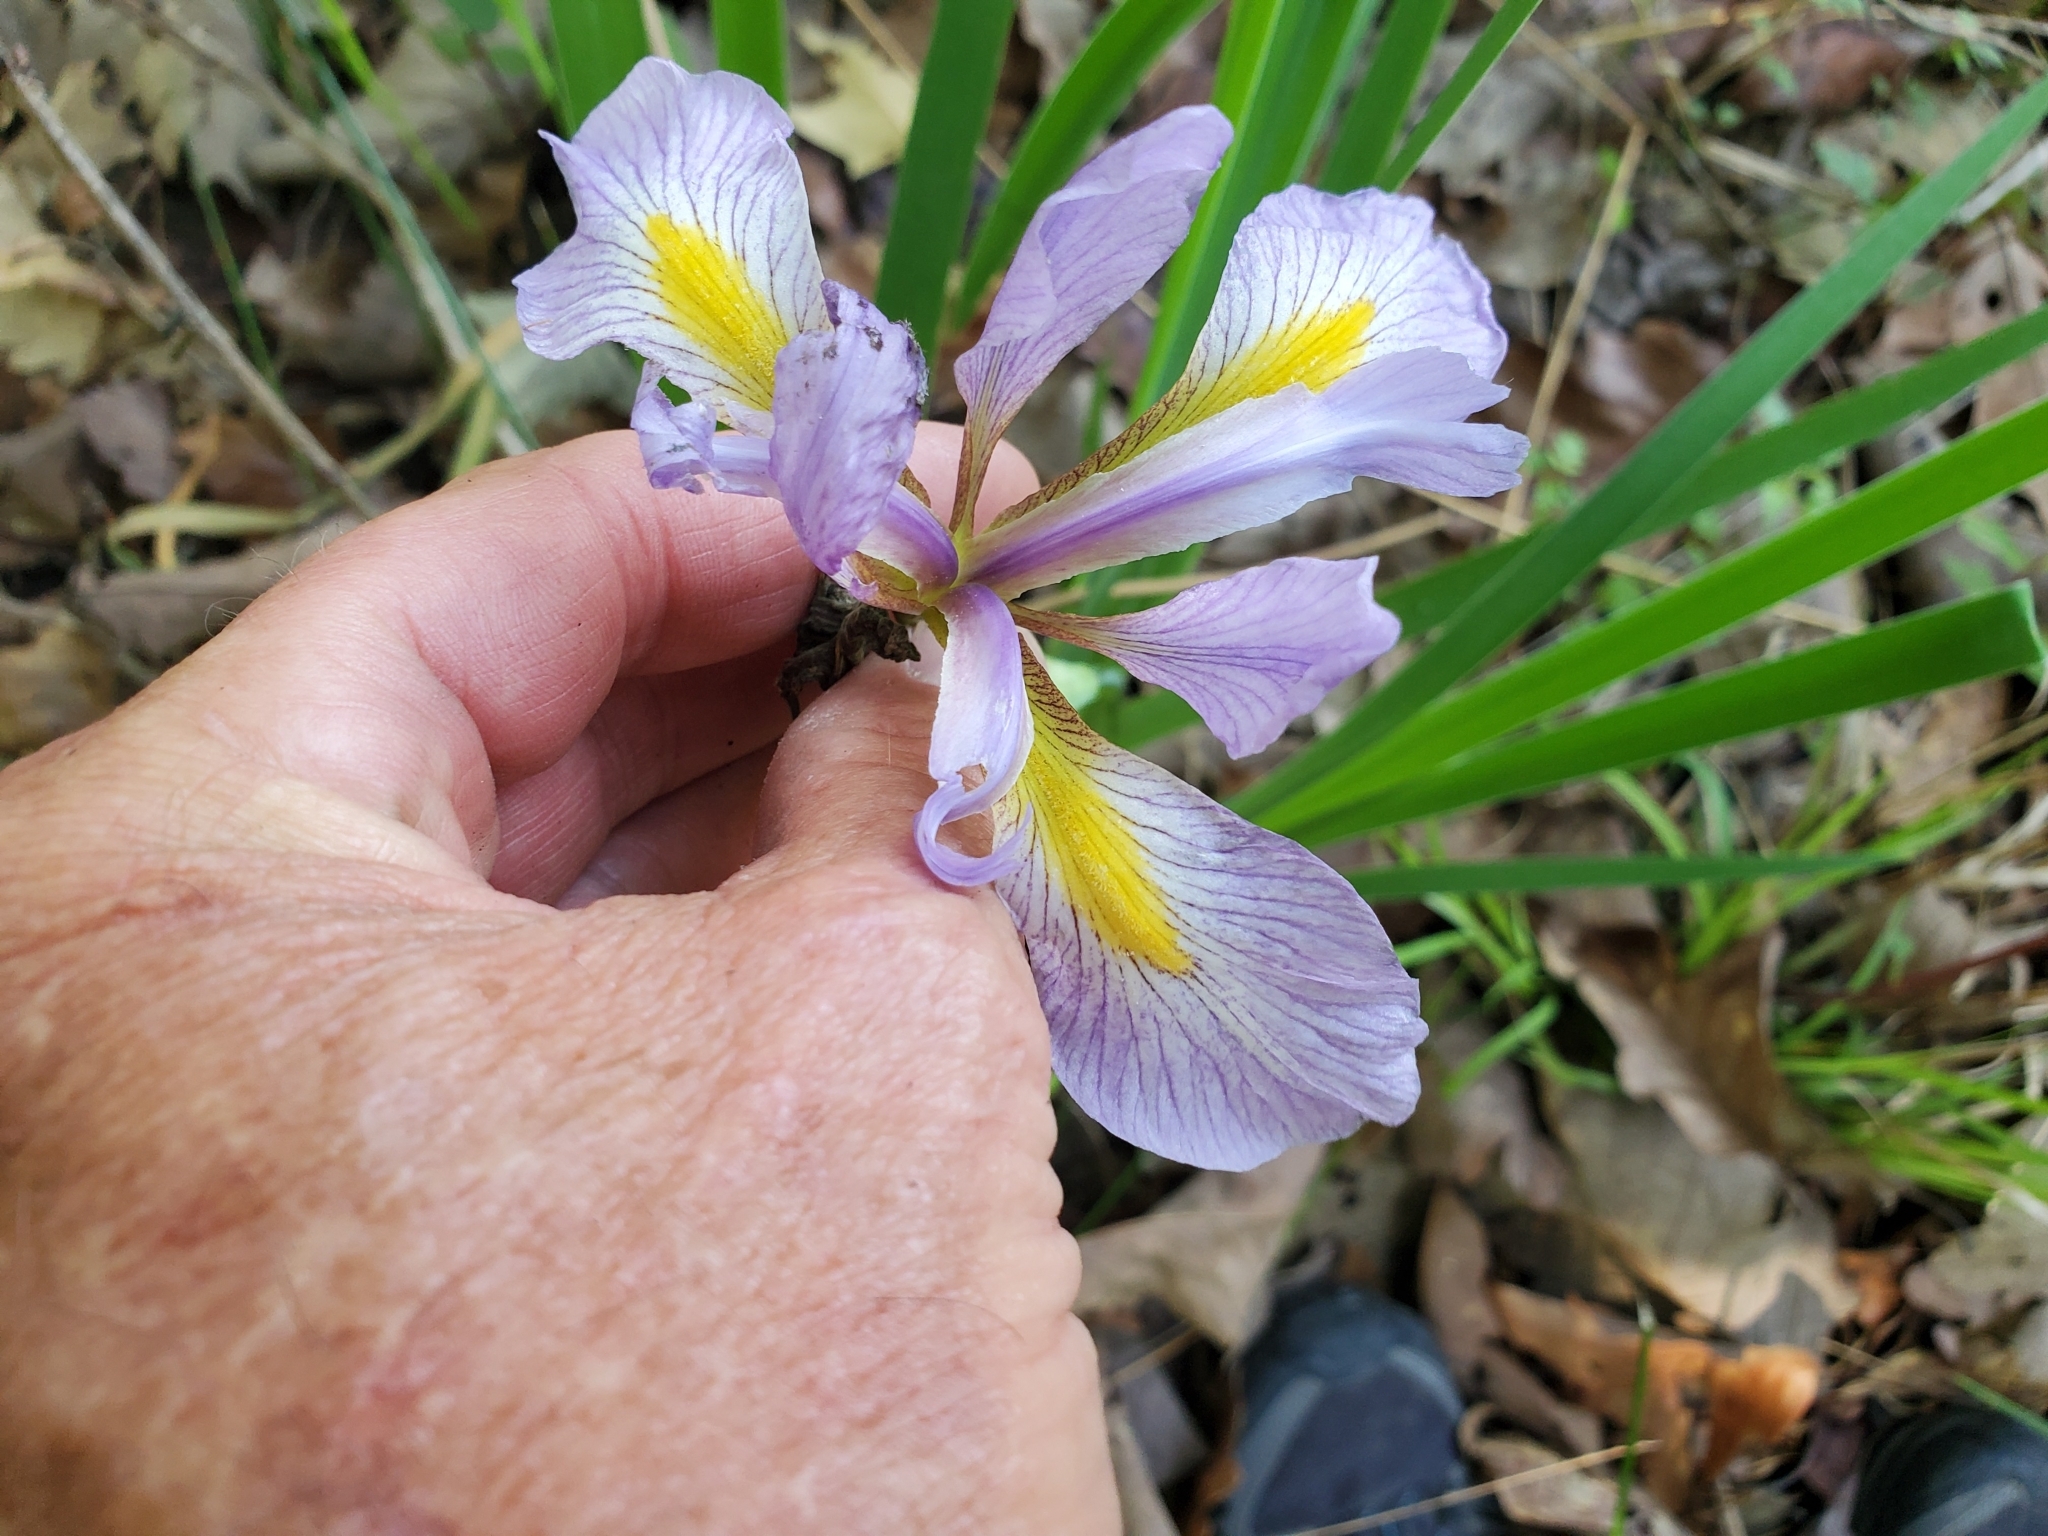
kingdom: Plantae
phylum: Tracheophyta
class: Liliopsida
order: Asparagales
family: Iridaceae
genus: Iris
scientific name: Iris virginica
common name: Southern blue flag
